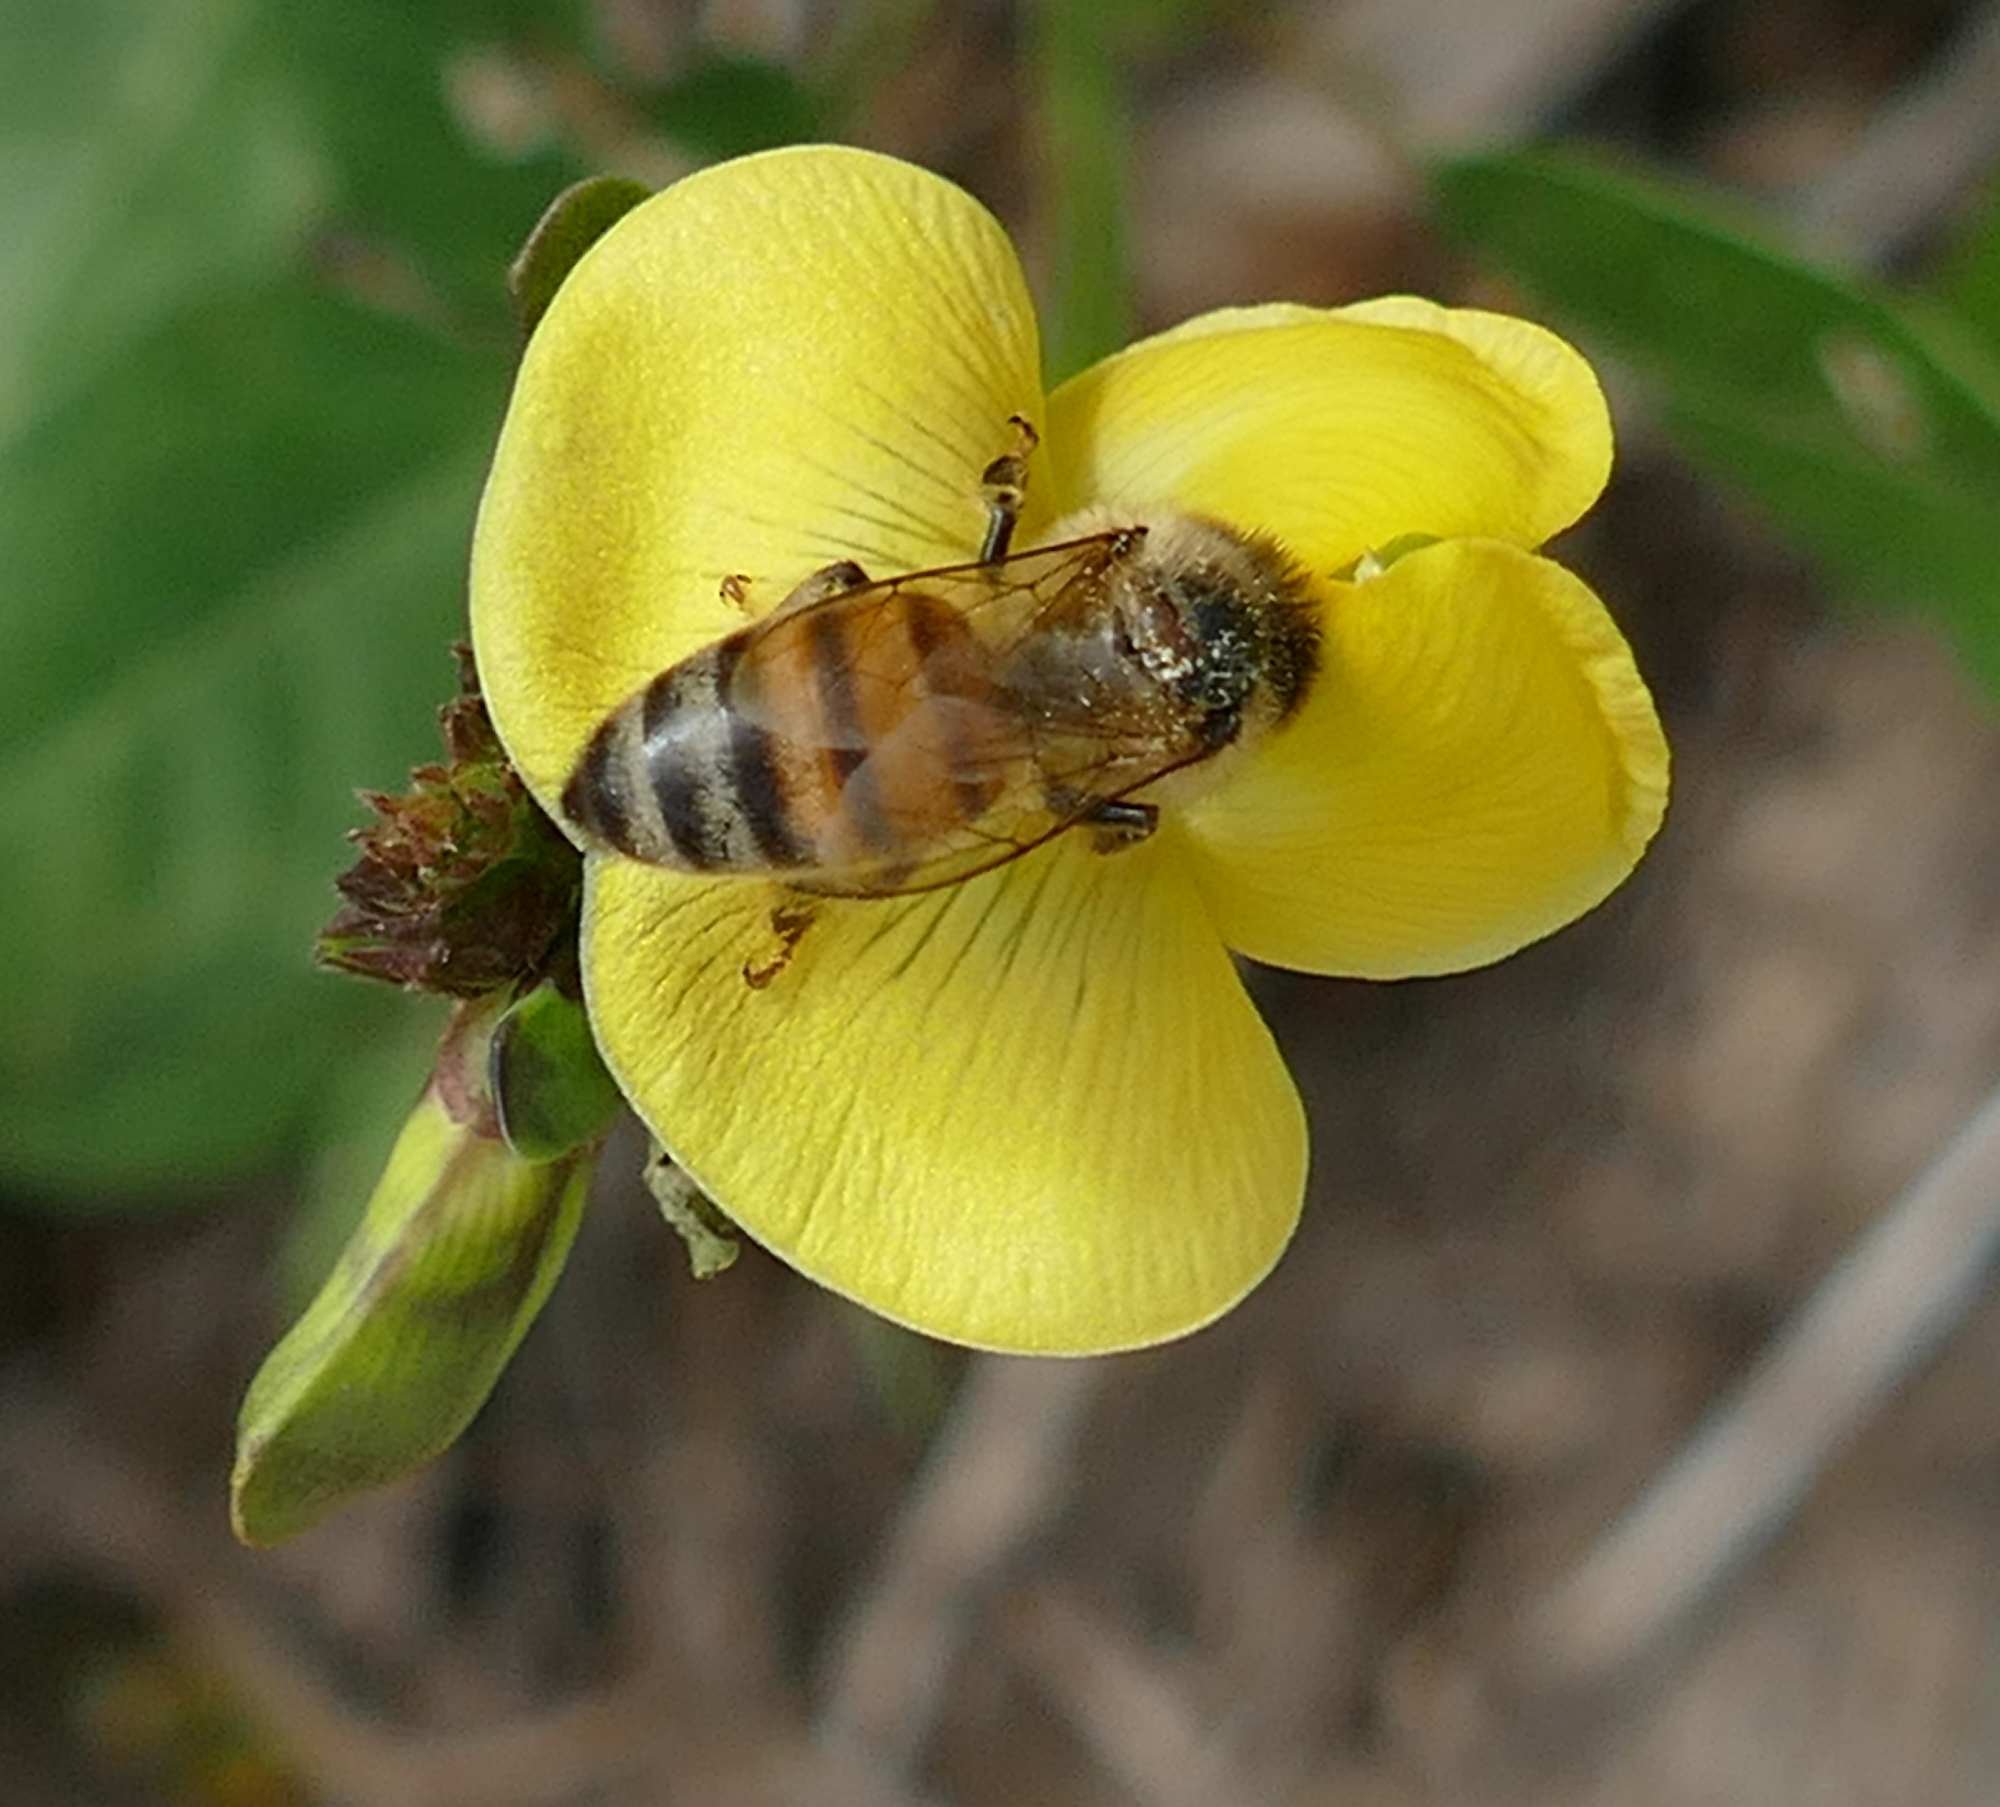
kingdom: Animalia
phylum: Arthropoda
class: Insecta
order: Hymenoptera
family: Apidae
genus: Apis
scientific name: Apis mellifera
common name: Honey bee
